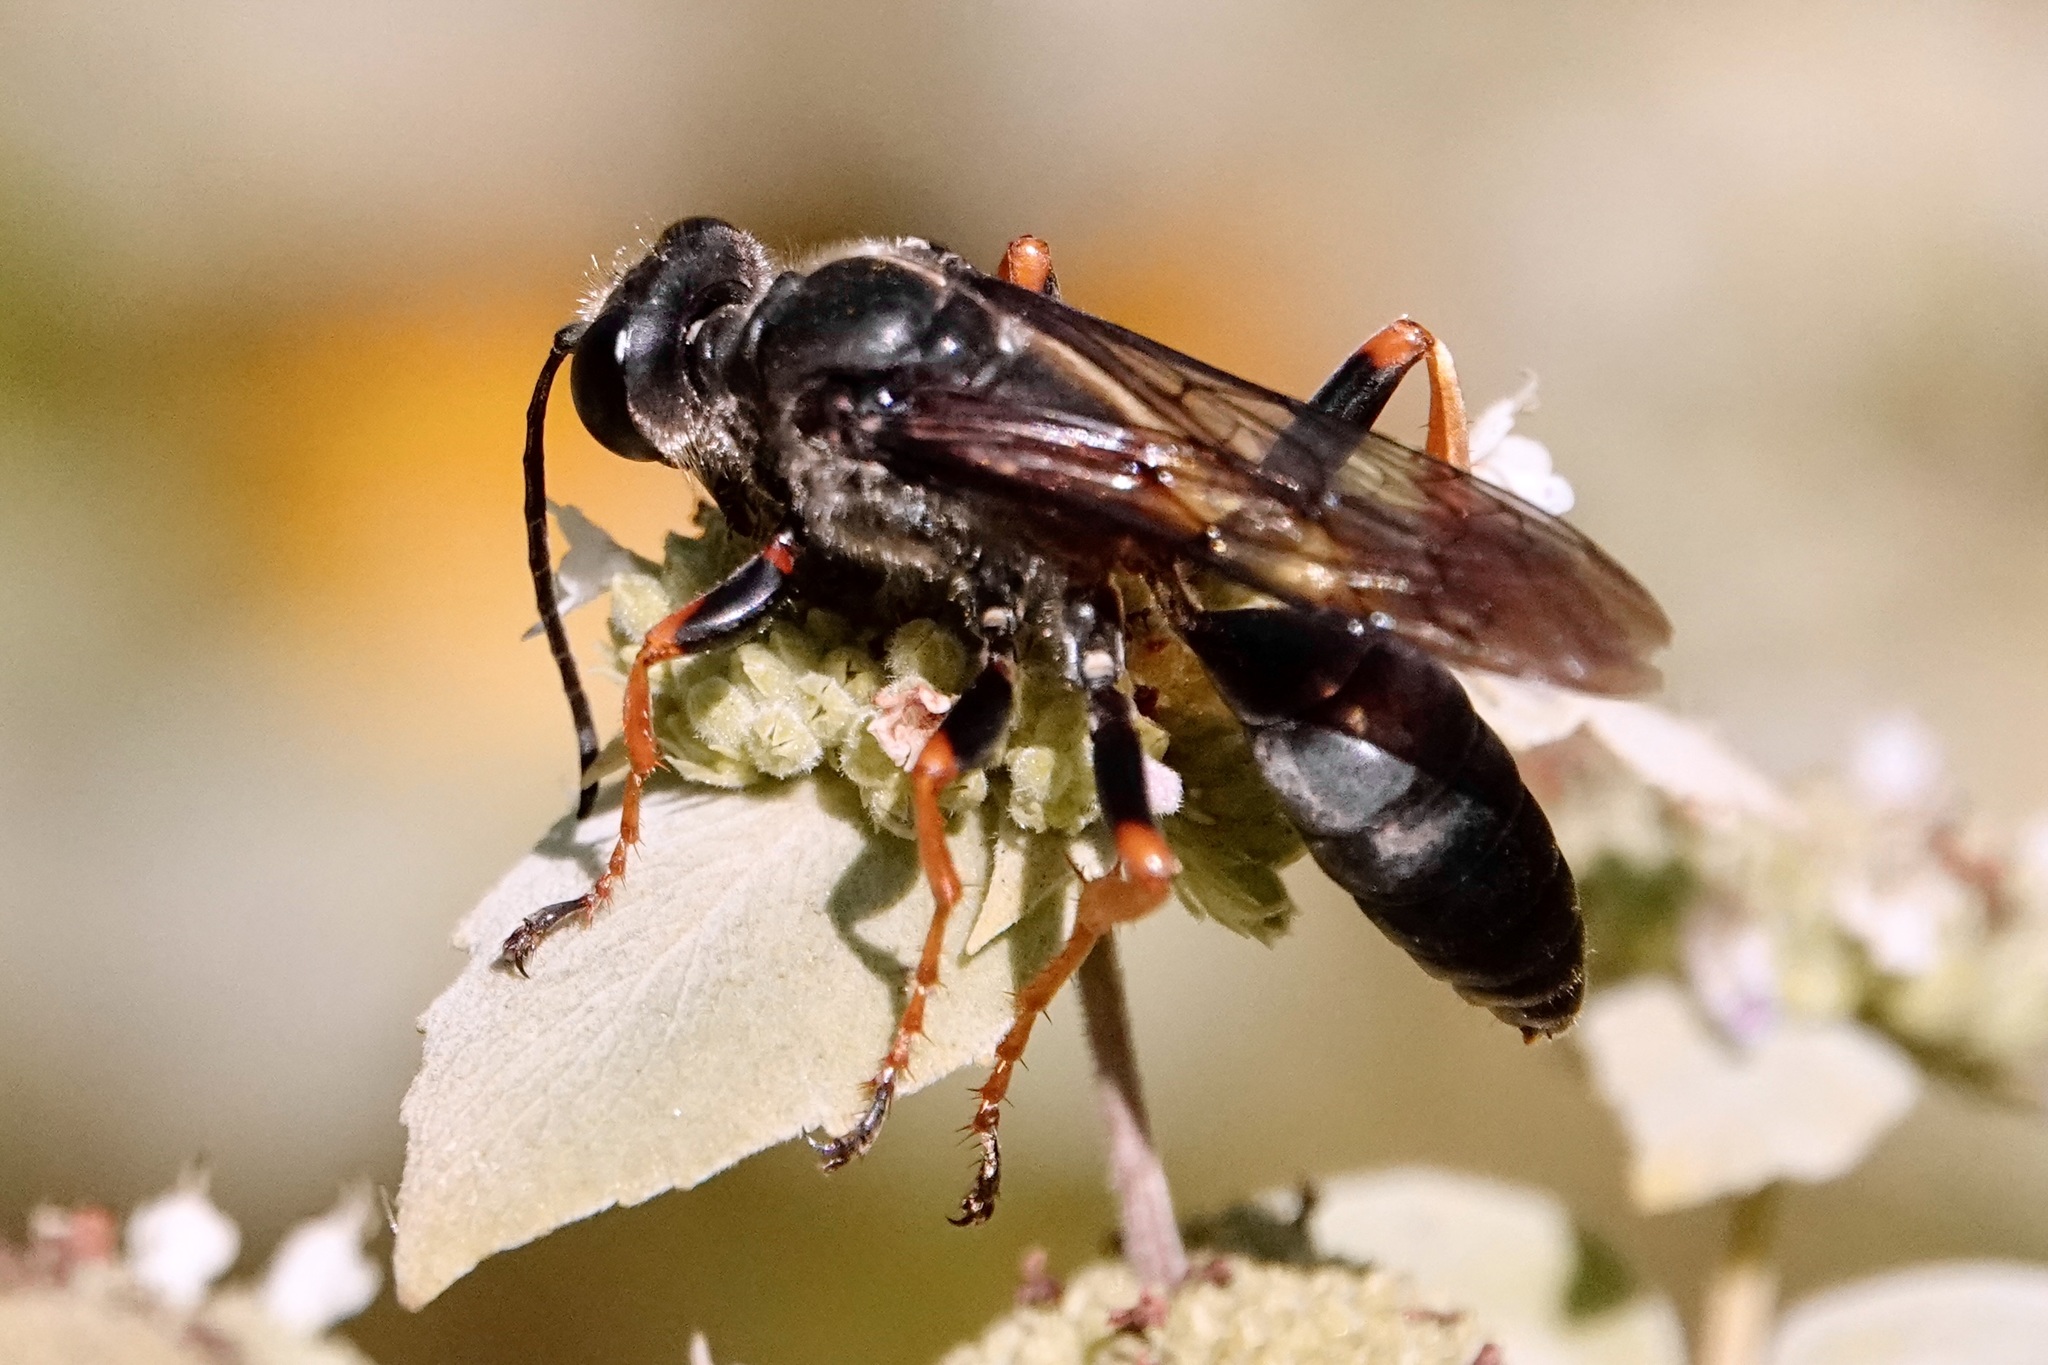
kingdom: Animalia
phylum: Arthropoda
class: Insecta
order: Hymenoptera
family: Sphecidae
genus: Sphex
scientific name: Sphex nudus
